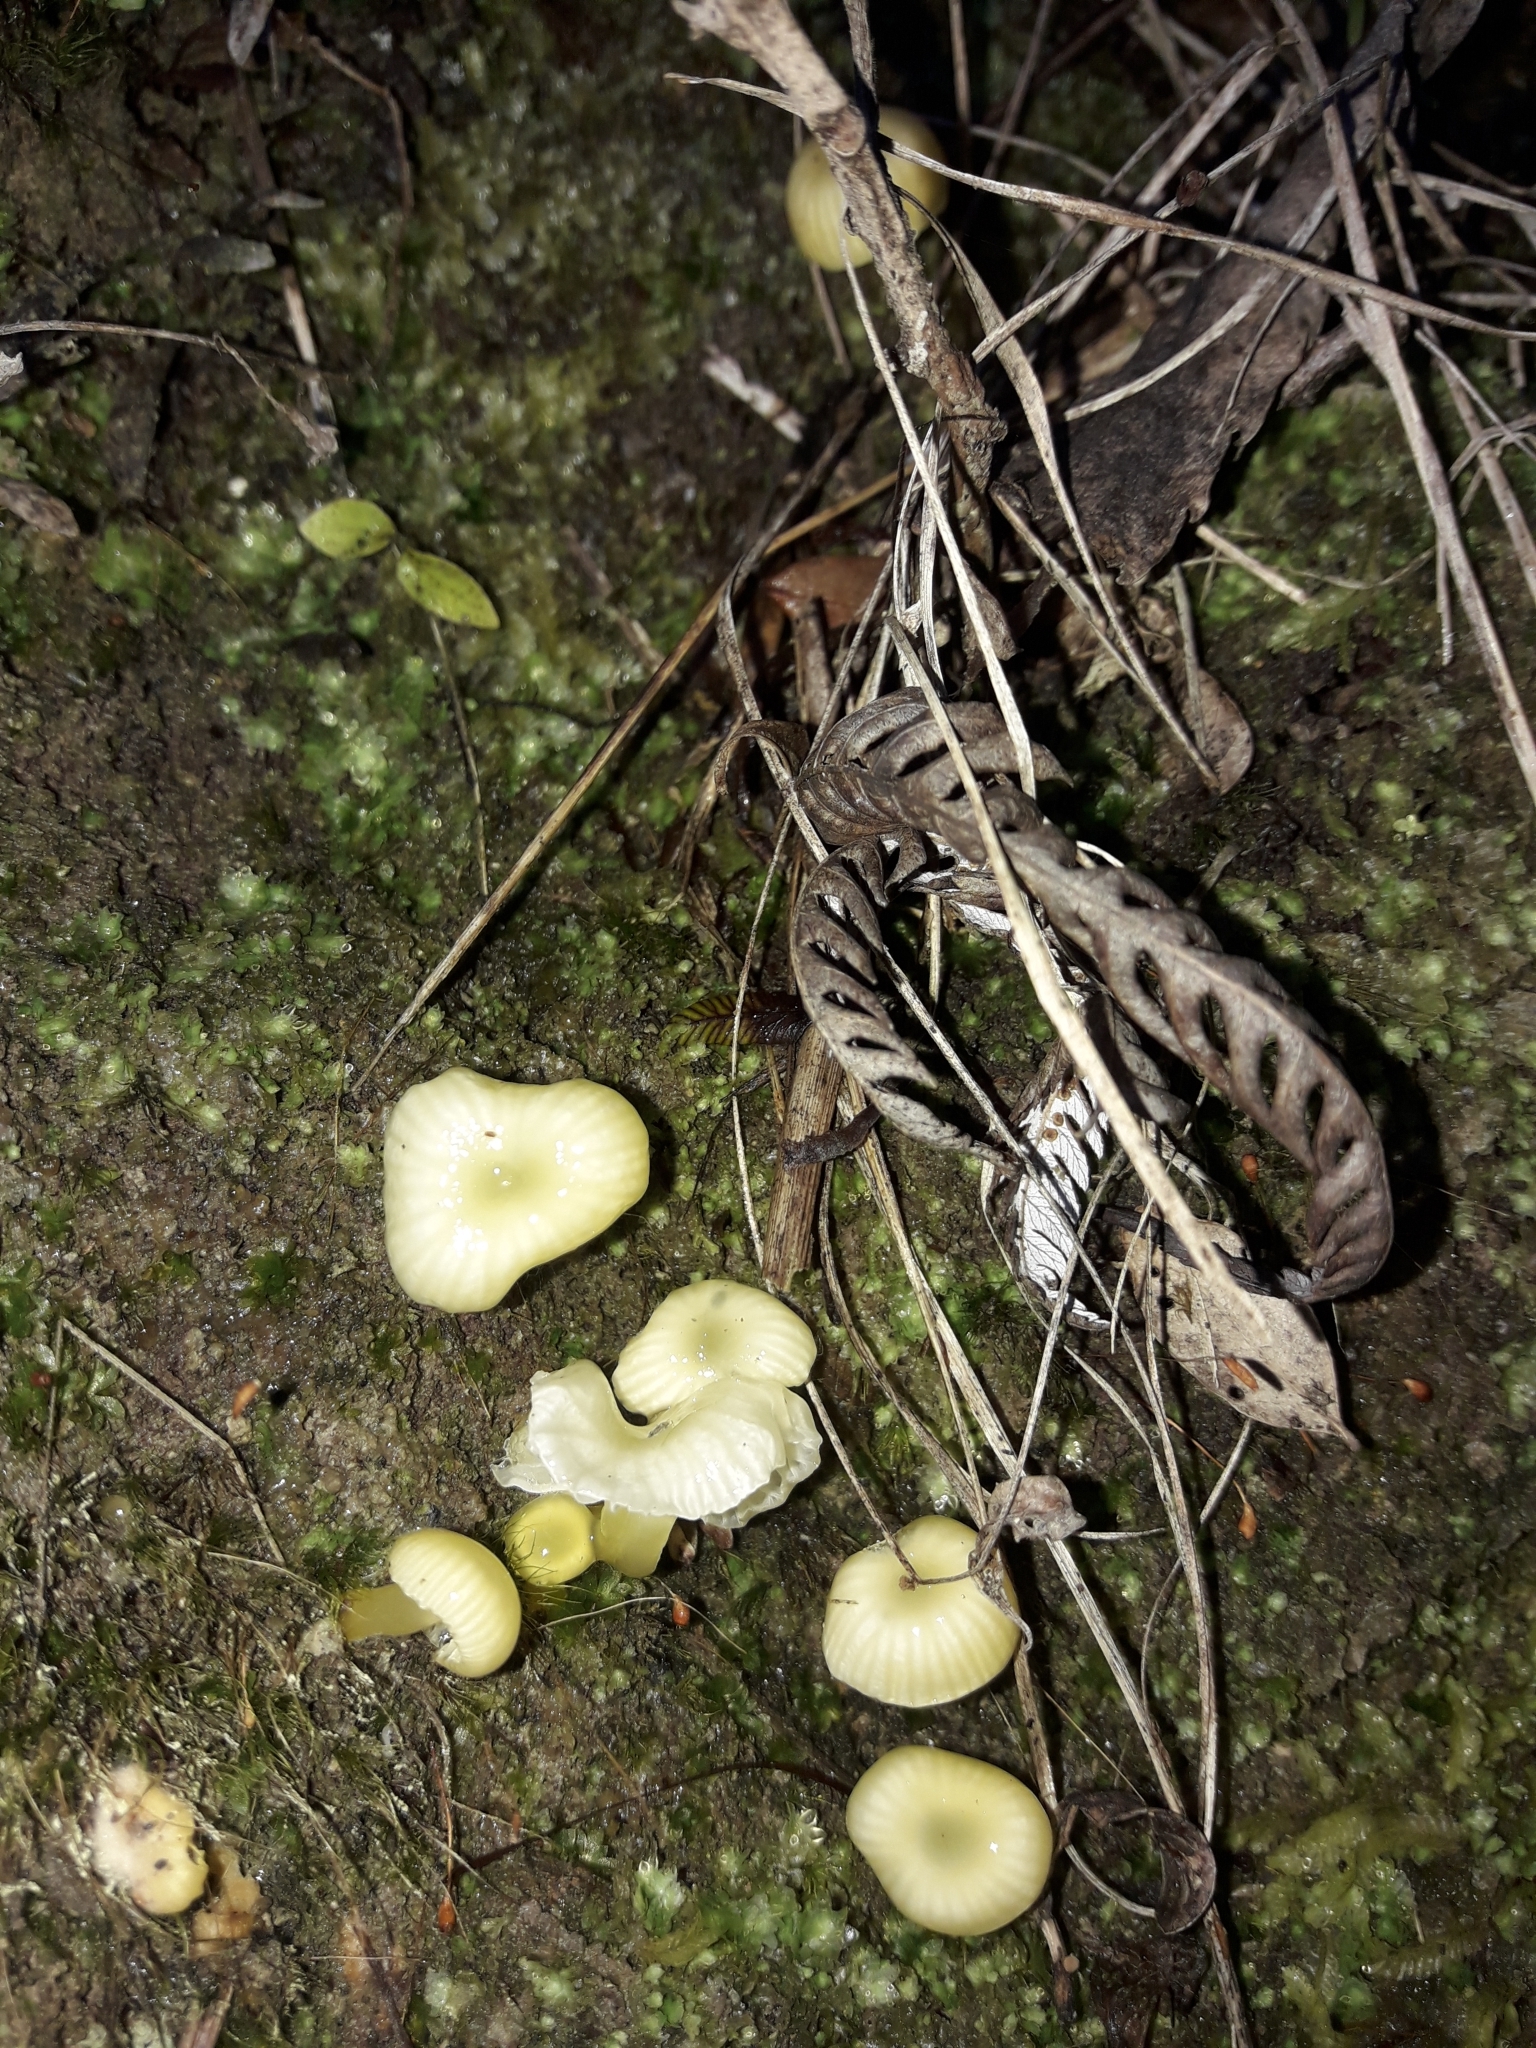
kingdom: Fungi
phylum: Basidiomycota
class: Agaricomycetes
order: Agaricales
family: Hygrophoraceae
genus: Gloioxanthomyces
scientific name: Gloioxanthomyces
